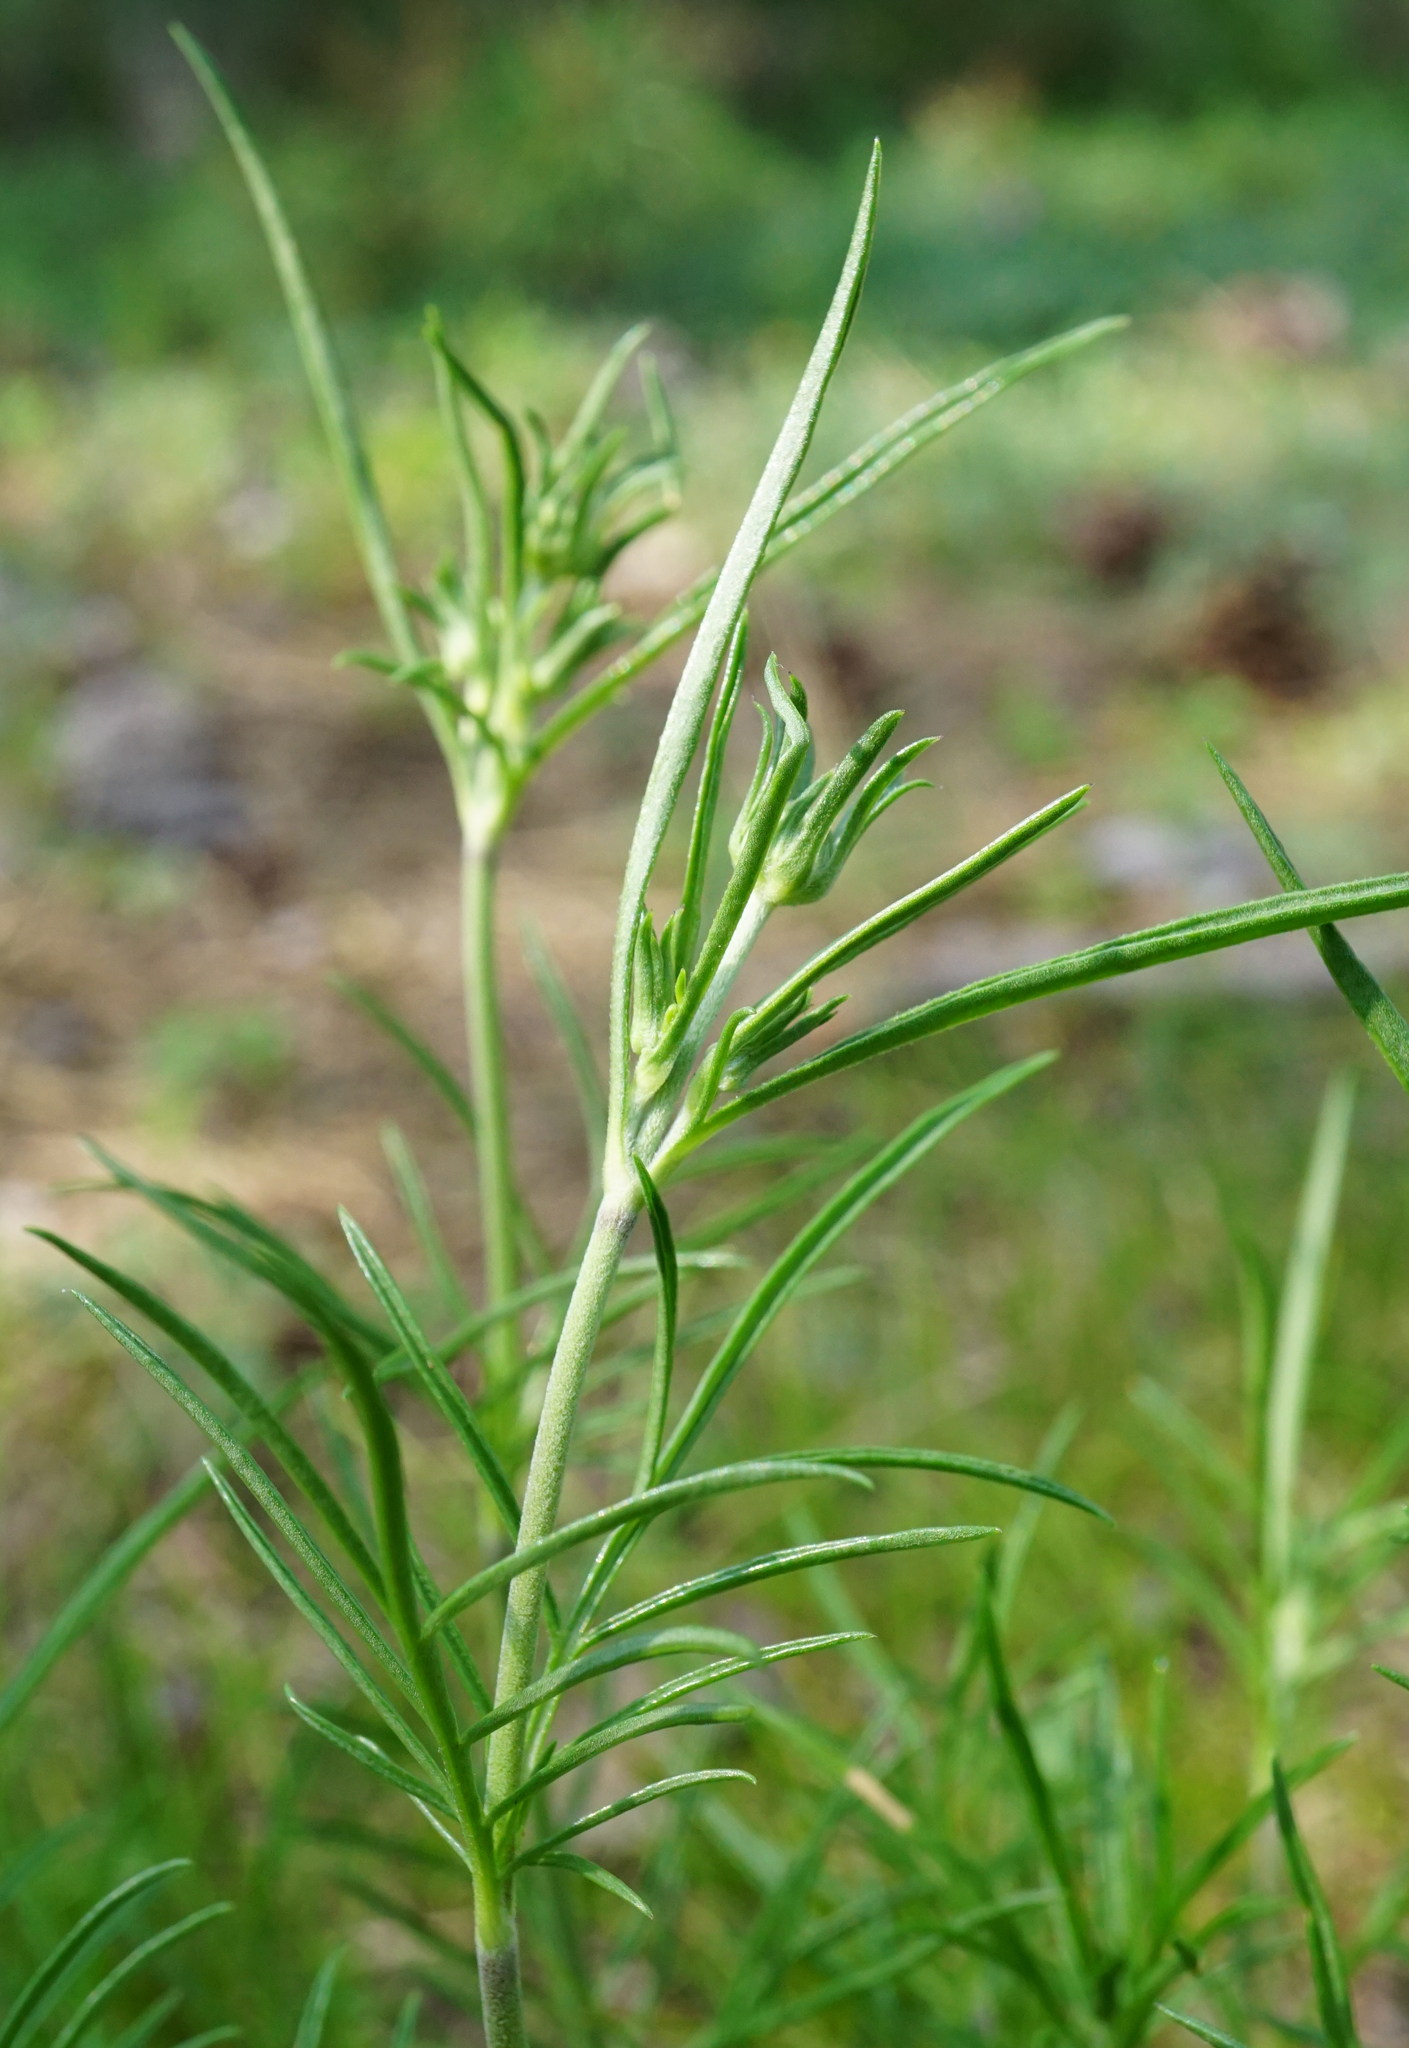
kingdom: Plantae
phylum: Tracheophyta
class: Magnoliopsida
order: Dipsacales
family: Caprifoliaceae
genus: Scabiosa
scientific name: Scabiosa canescens
